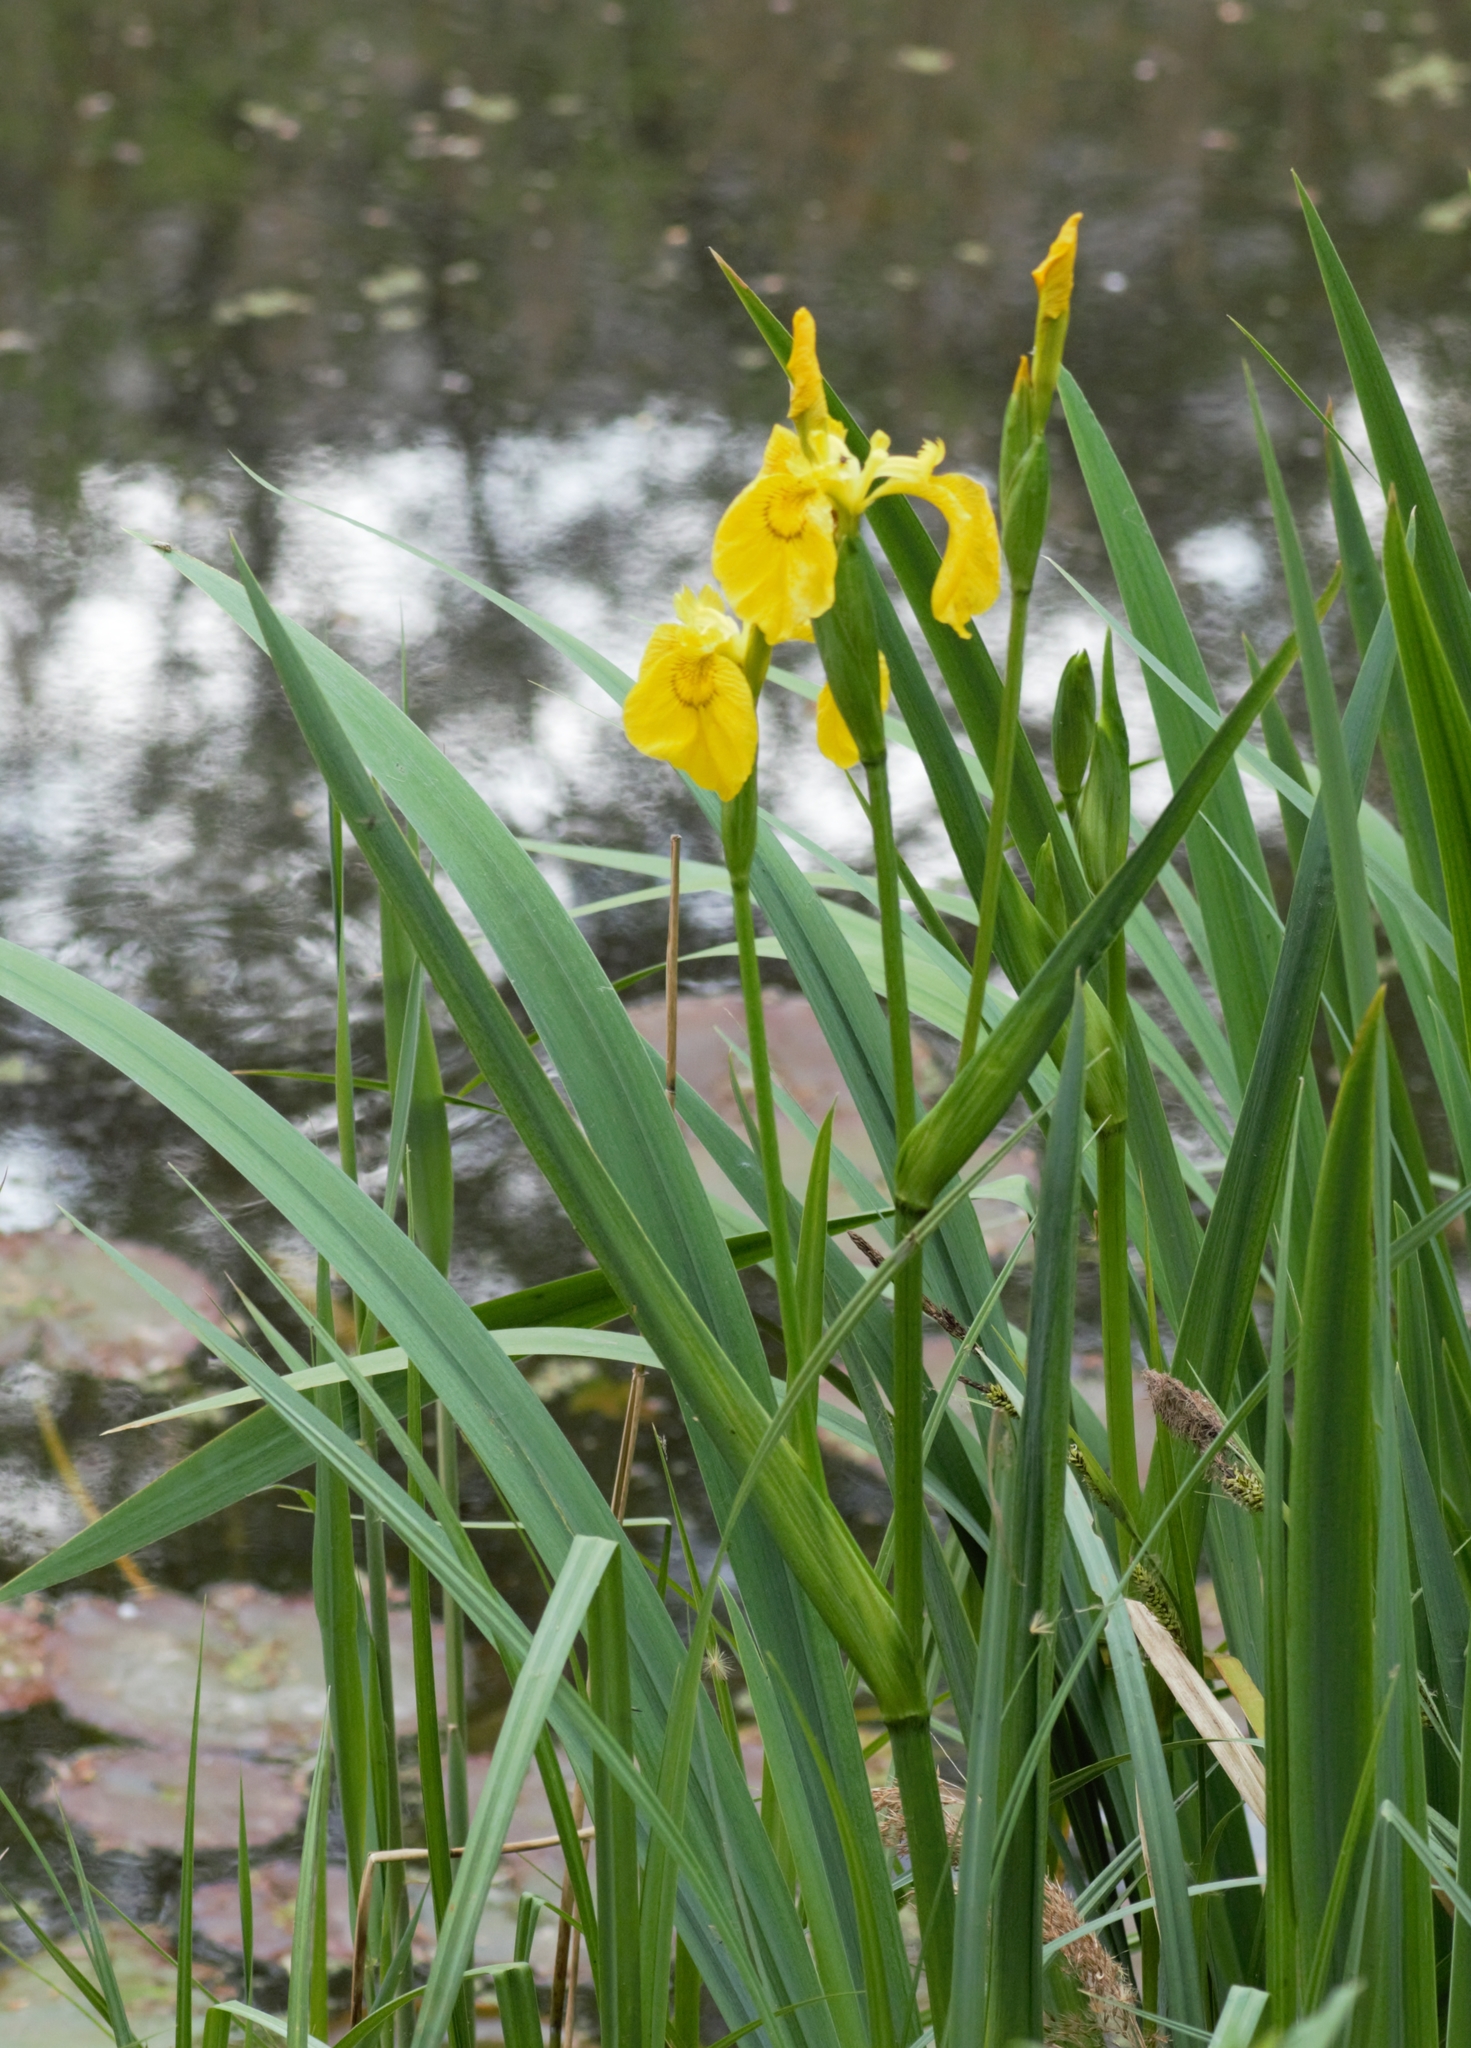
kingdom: Plantae
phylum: Tracheophyta
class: Liliopsida
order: Asparagales
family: Iridaceae
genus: Iris
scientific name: Iris pseudacorus
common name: Yellow flag
